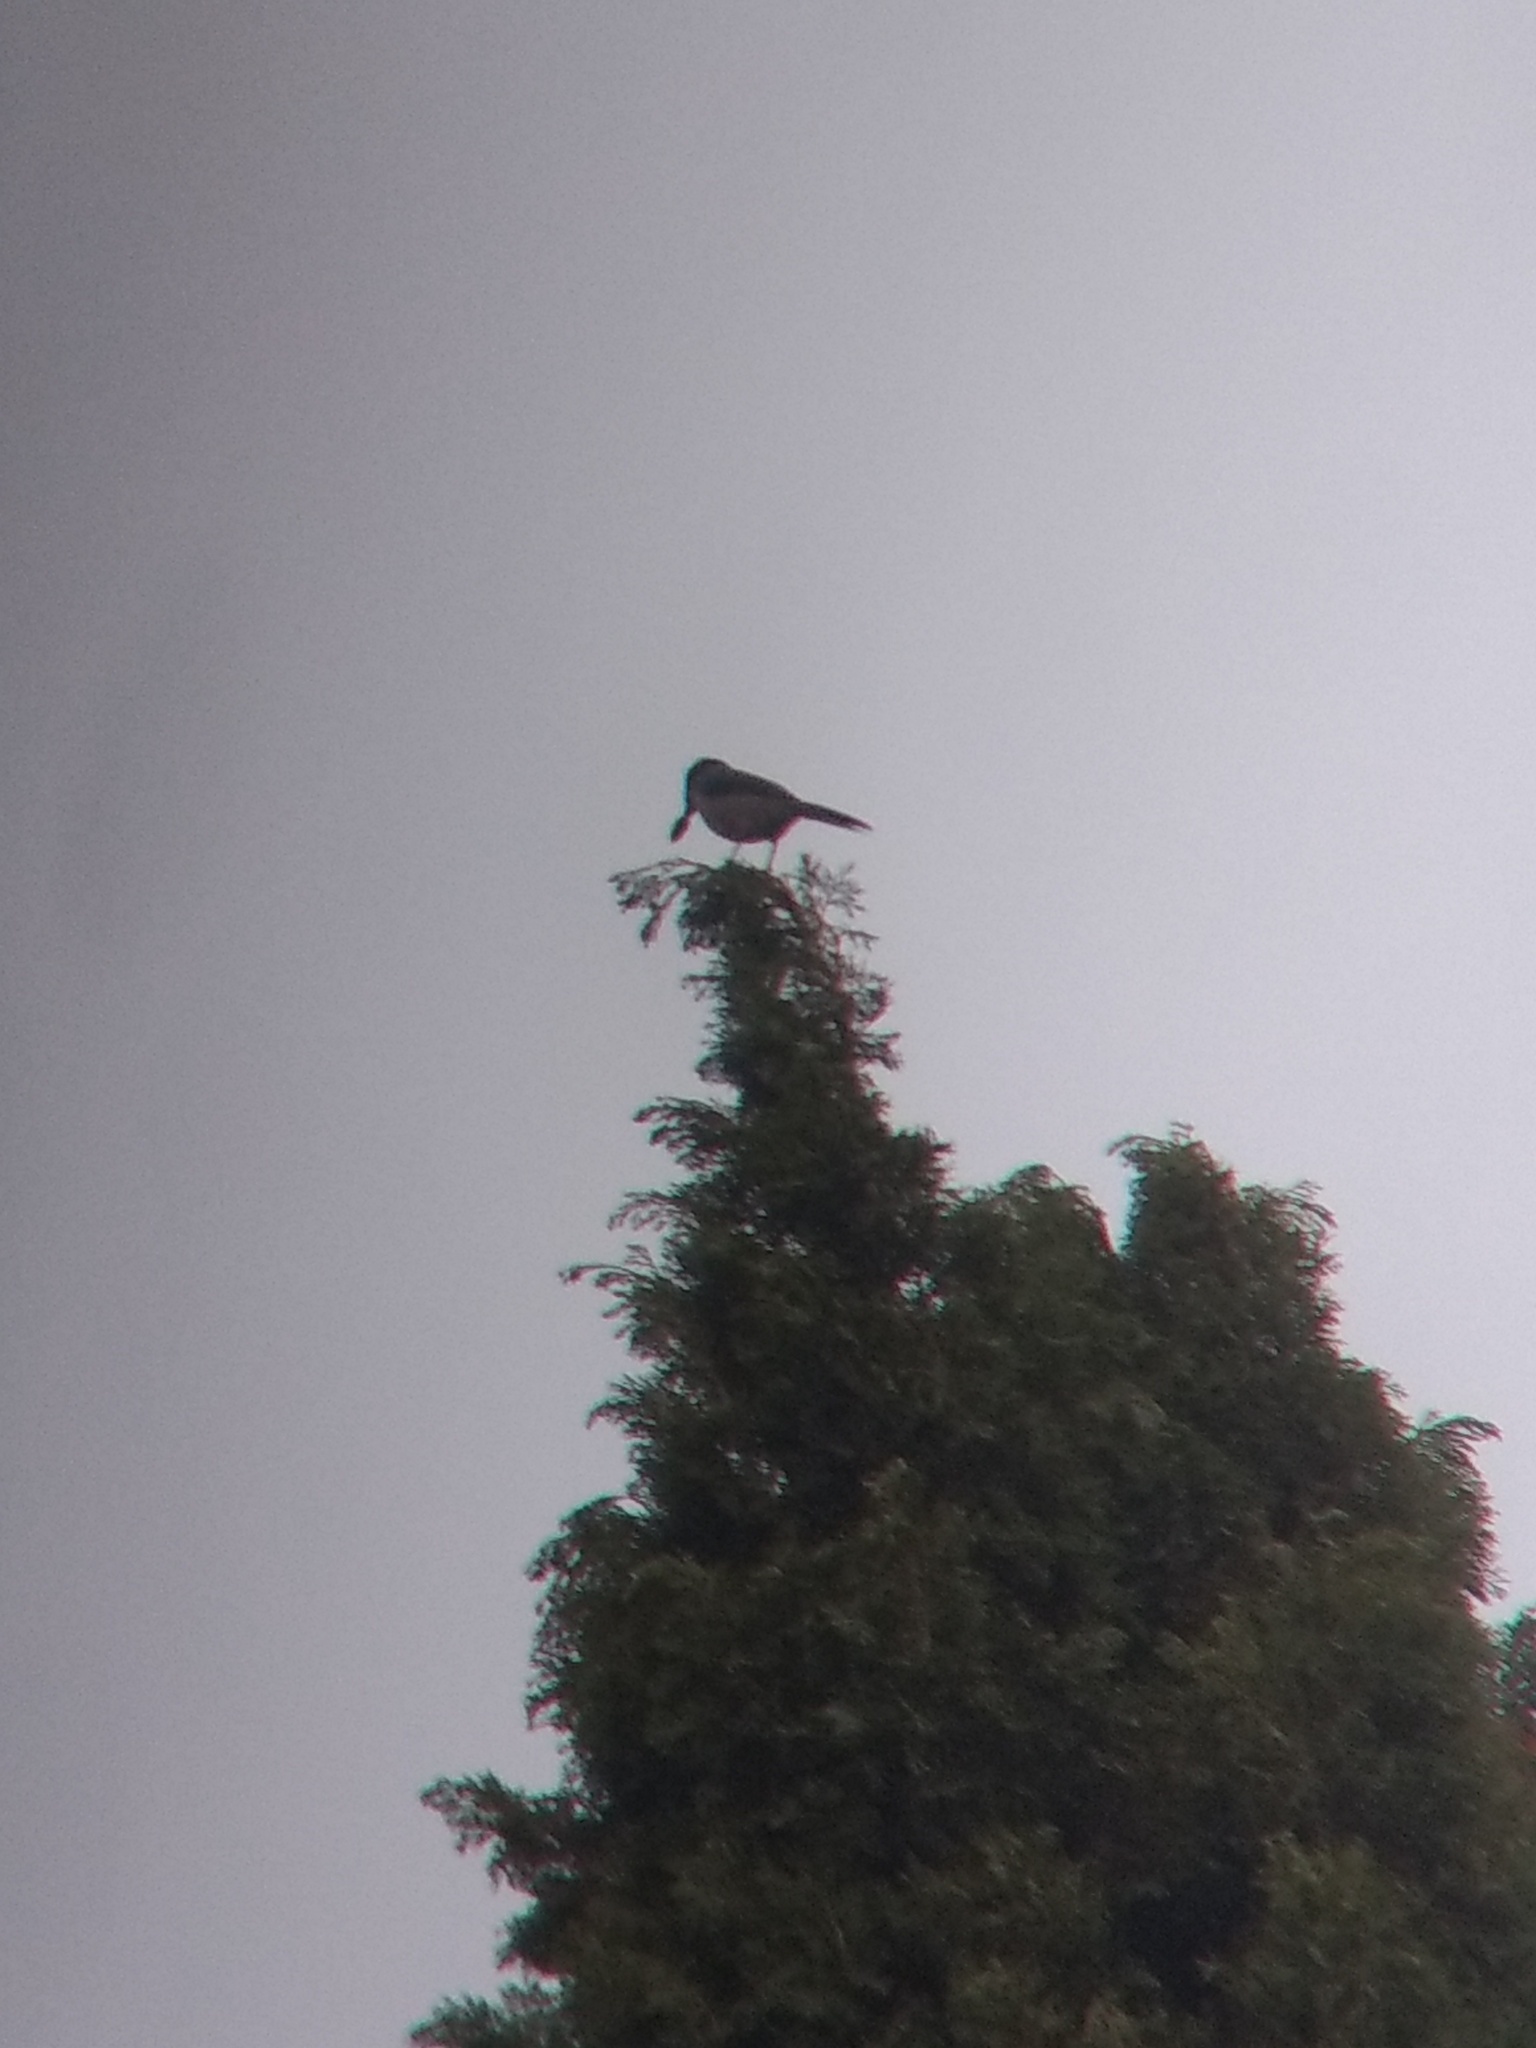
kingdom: Animalia
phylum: Chordata
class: Aves
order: Passeriformes
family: Corvidae
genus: Aphelocoma
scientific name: Aphelocoma californica
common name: California scrub-jay
